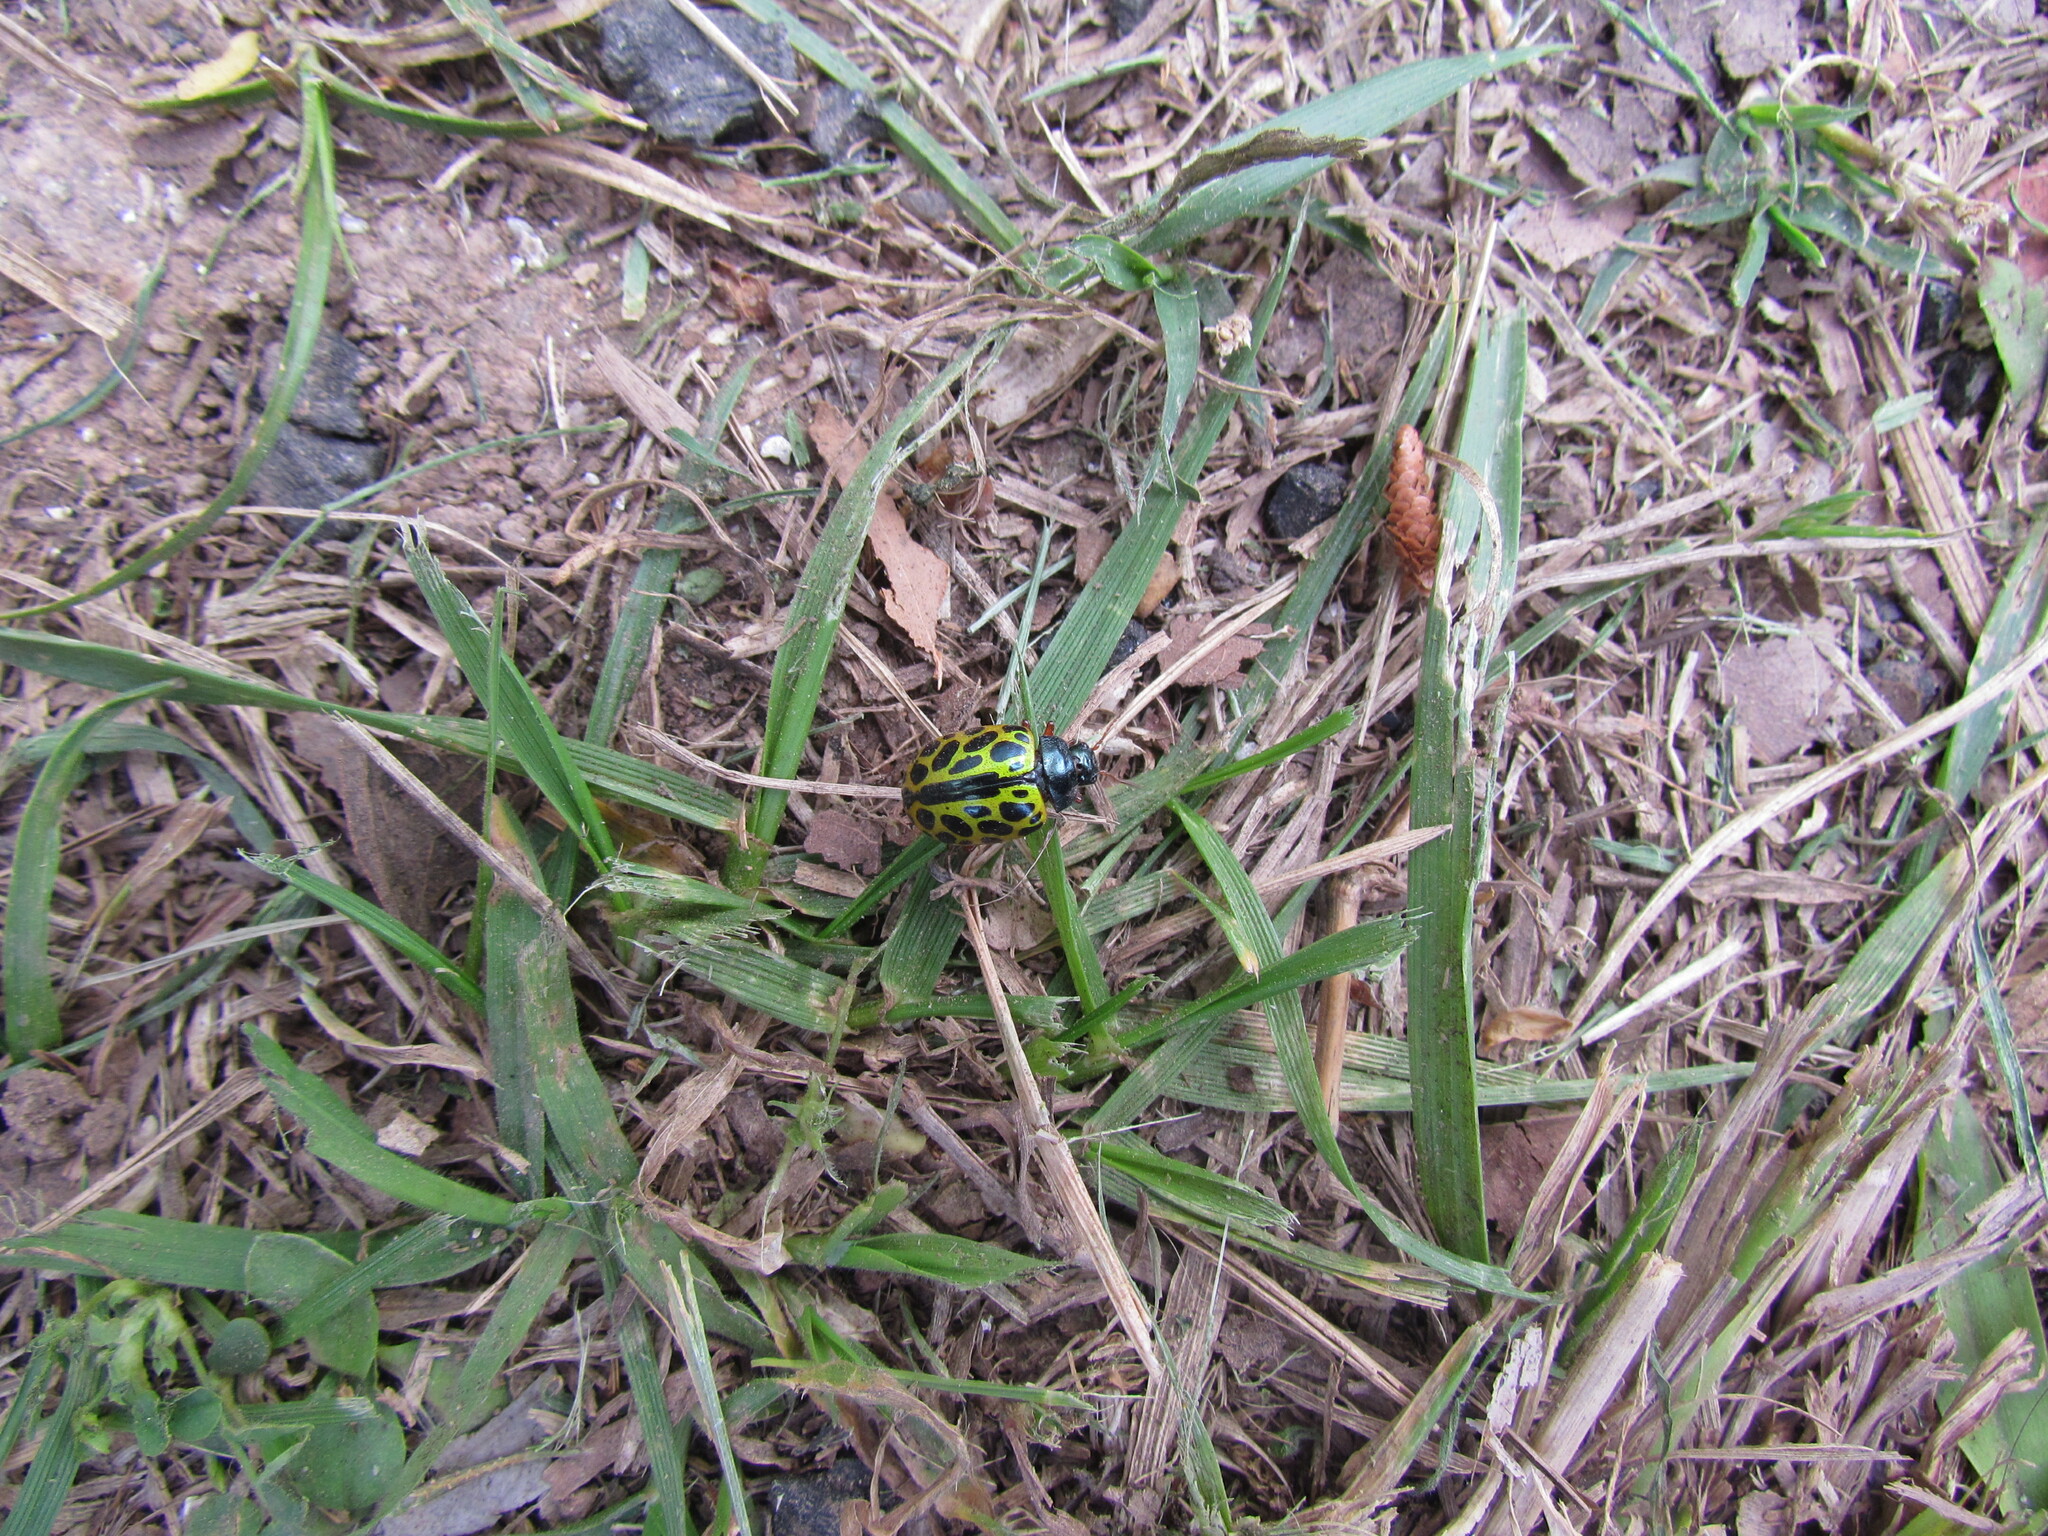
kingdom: Animalia
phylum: Arthropoda
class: Insecta
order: Coleoptera
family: Chrysomelidae
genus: Calligrapha
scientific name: Calligrapha polyspila
